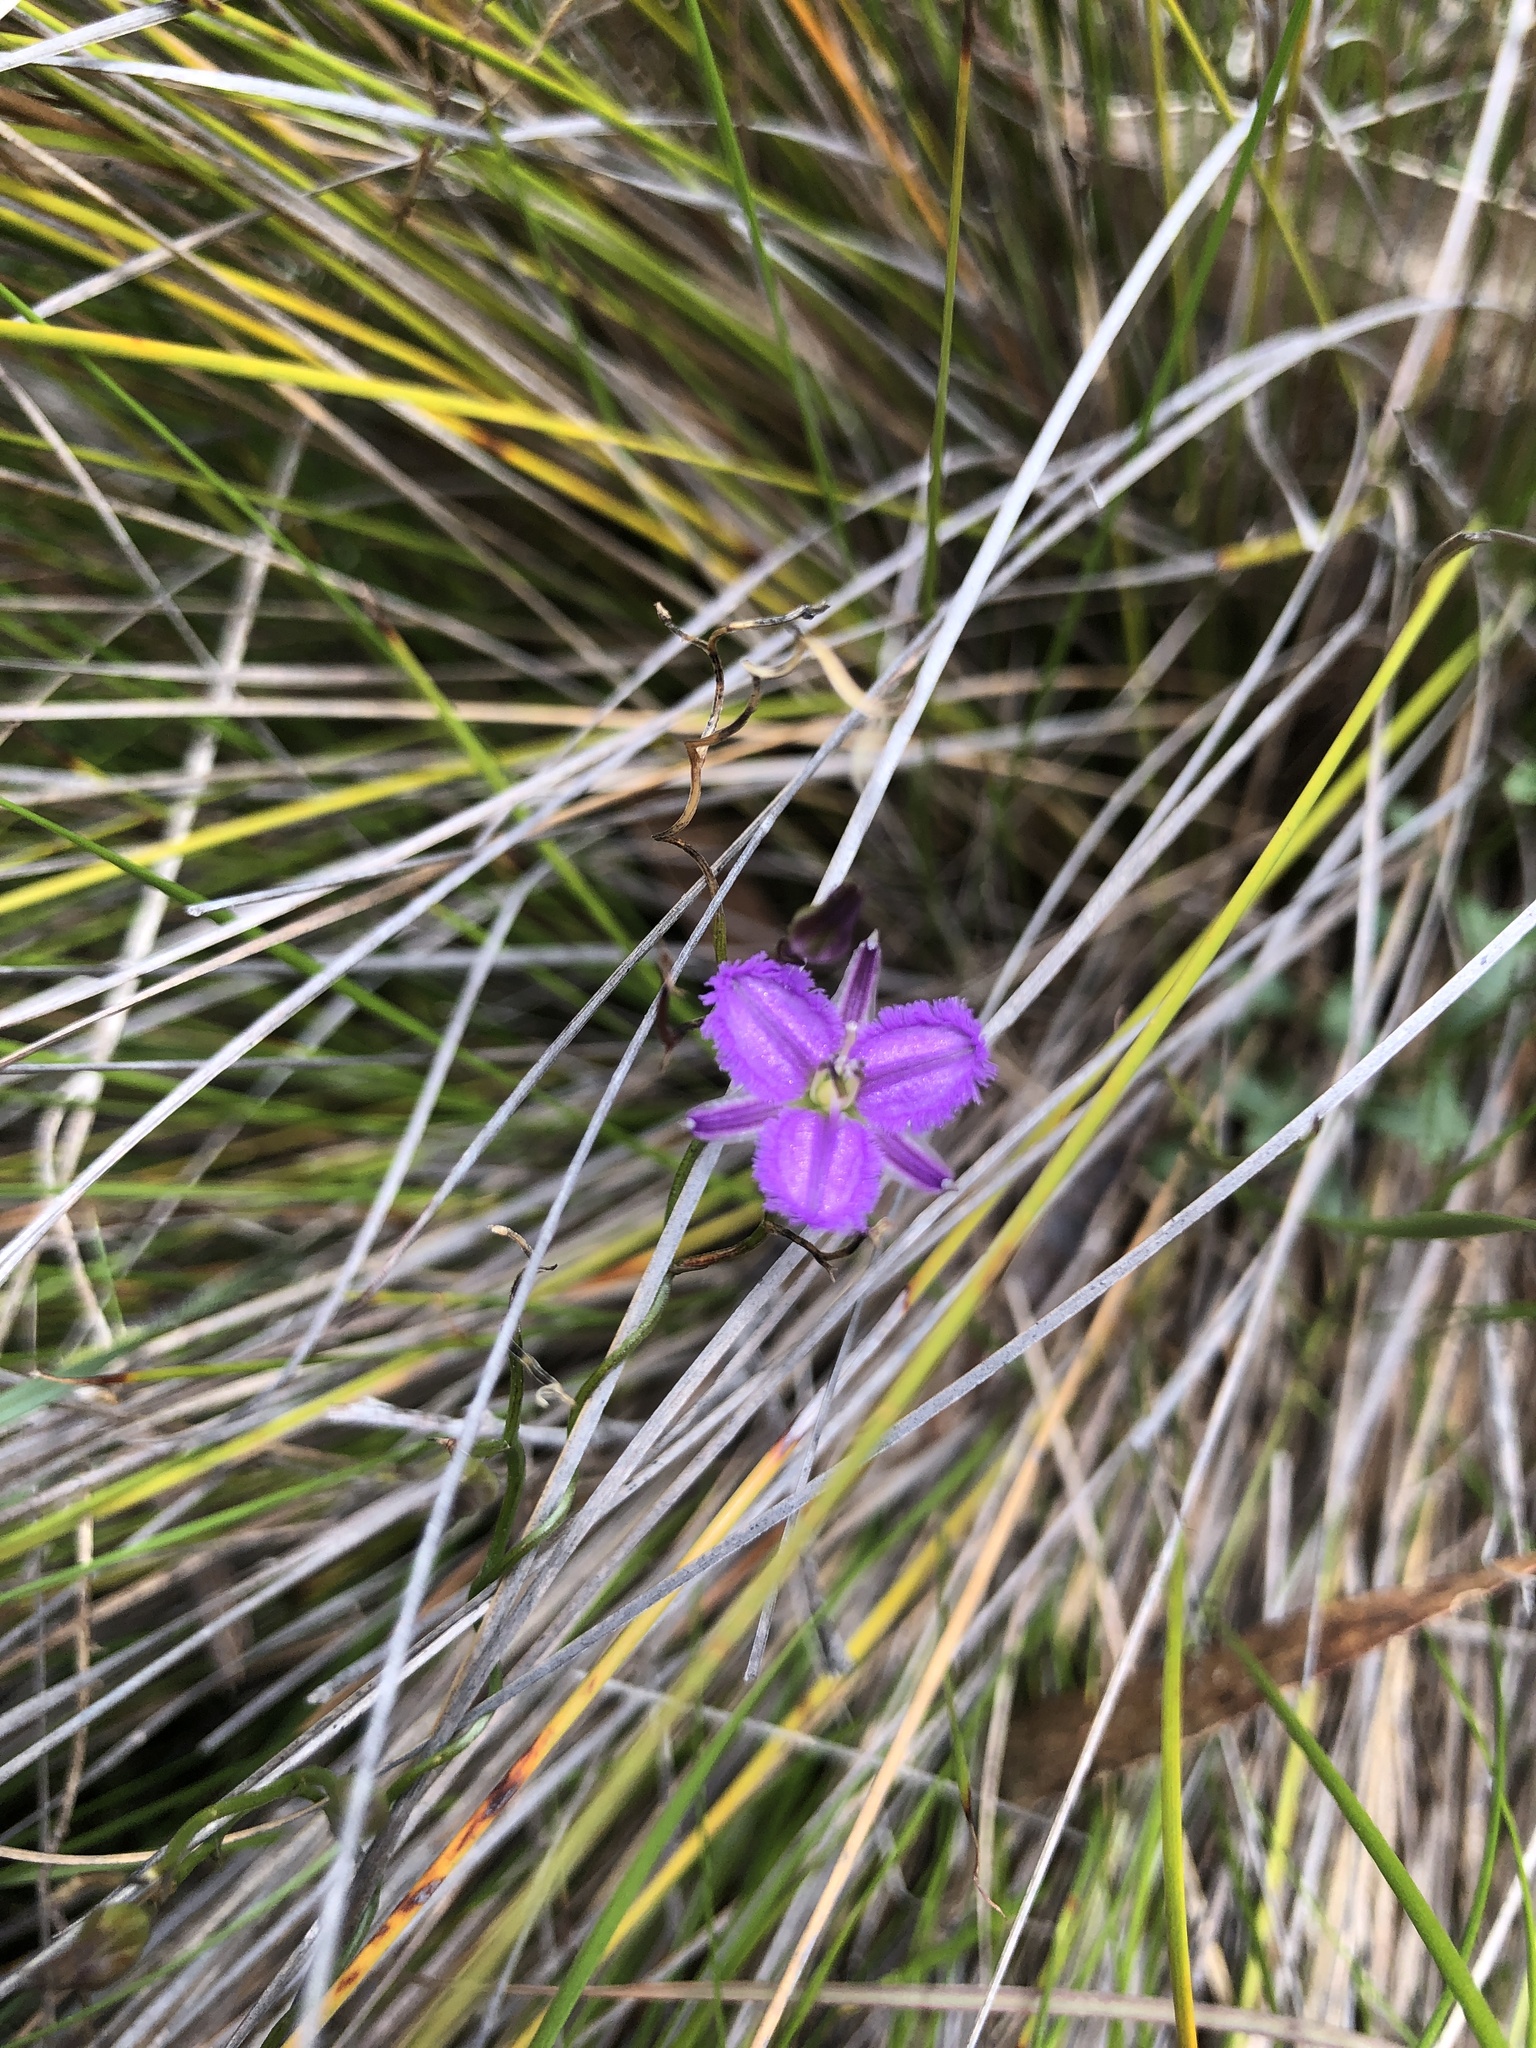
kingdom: Plantae
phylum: Tracheophyta
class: Liliopsida
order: Asparagales
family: Asparagaceae
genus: Thysanotus
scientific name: Thysanotus patersonii
